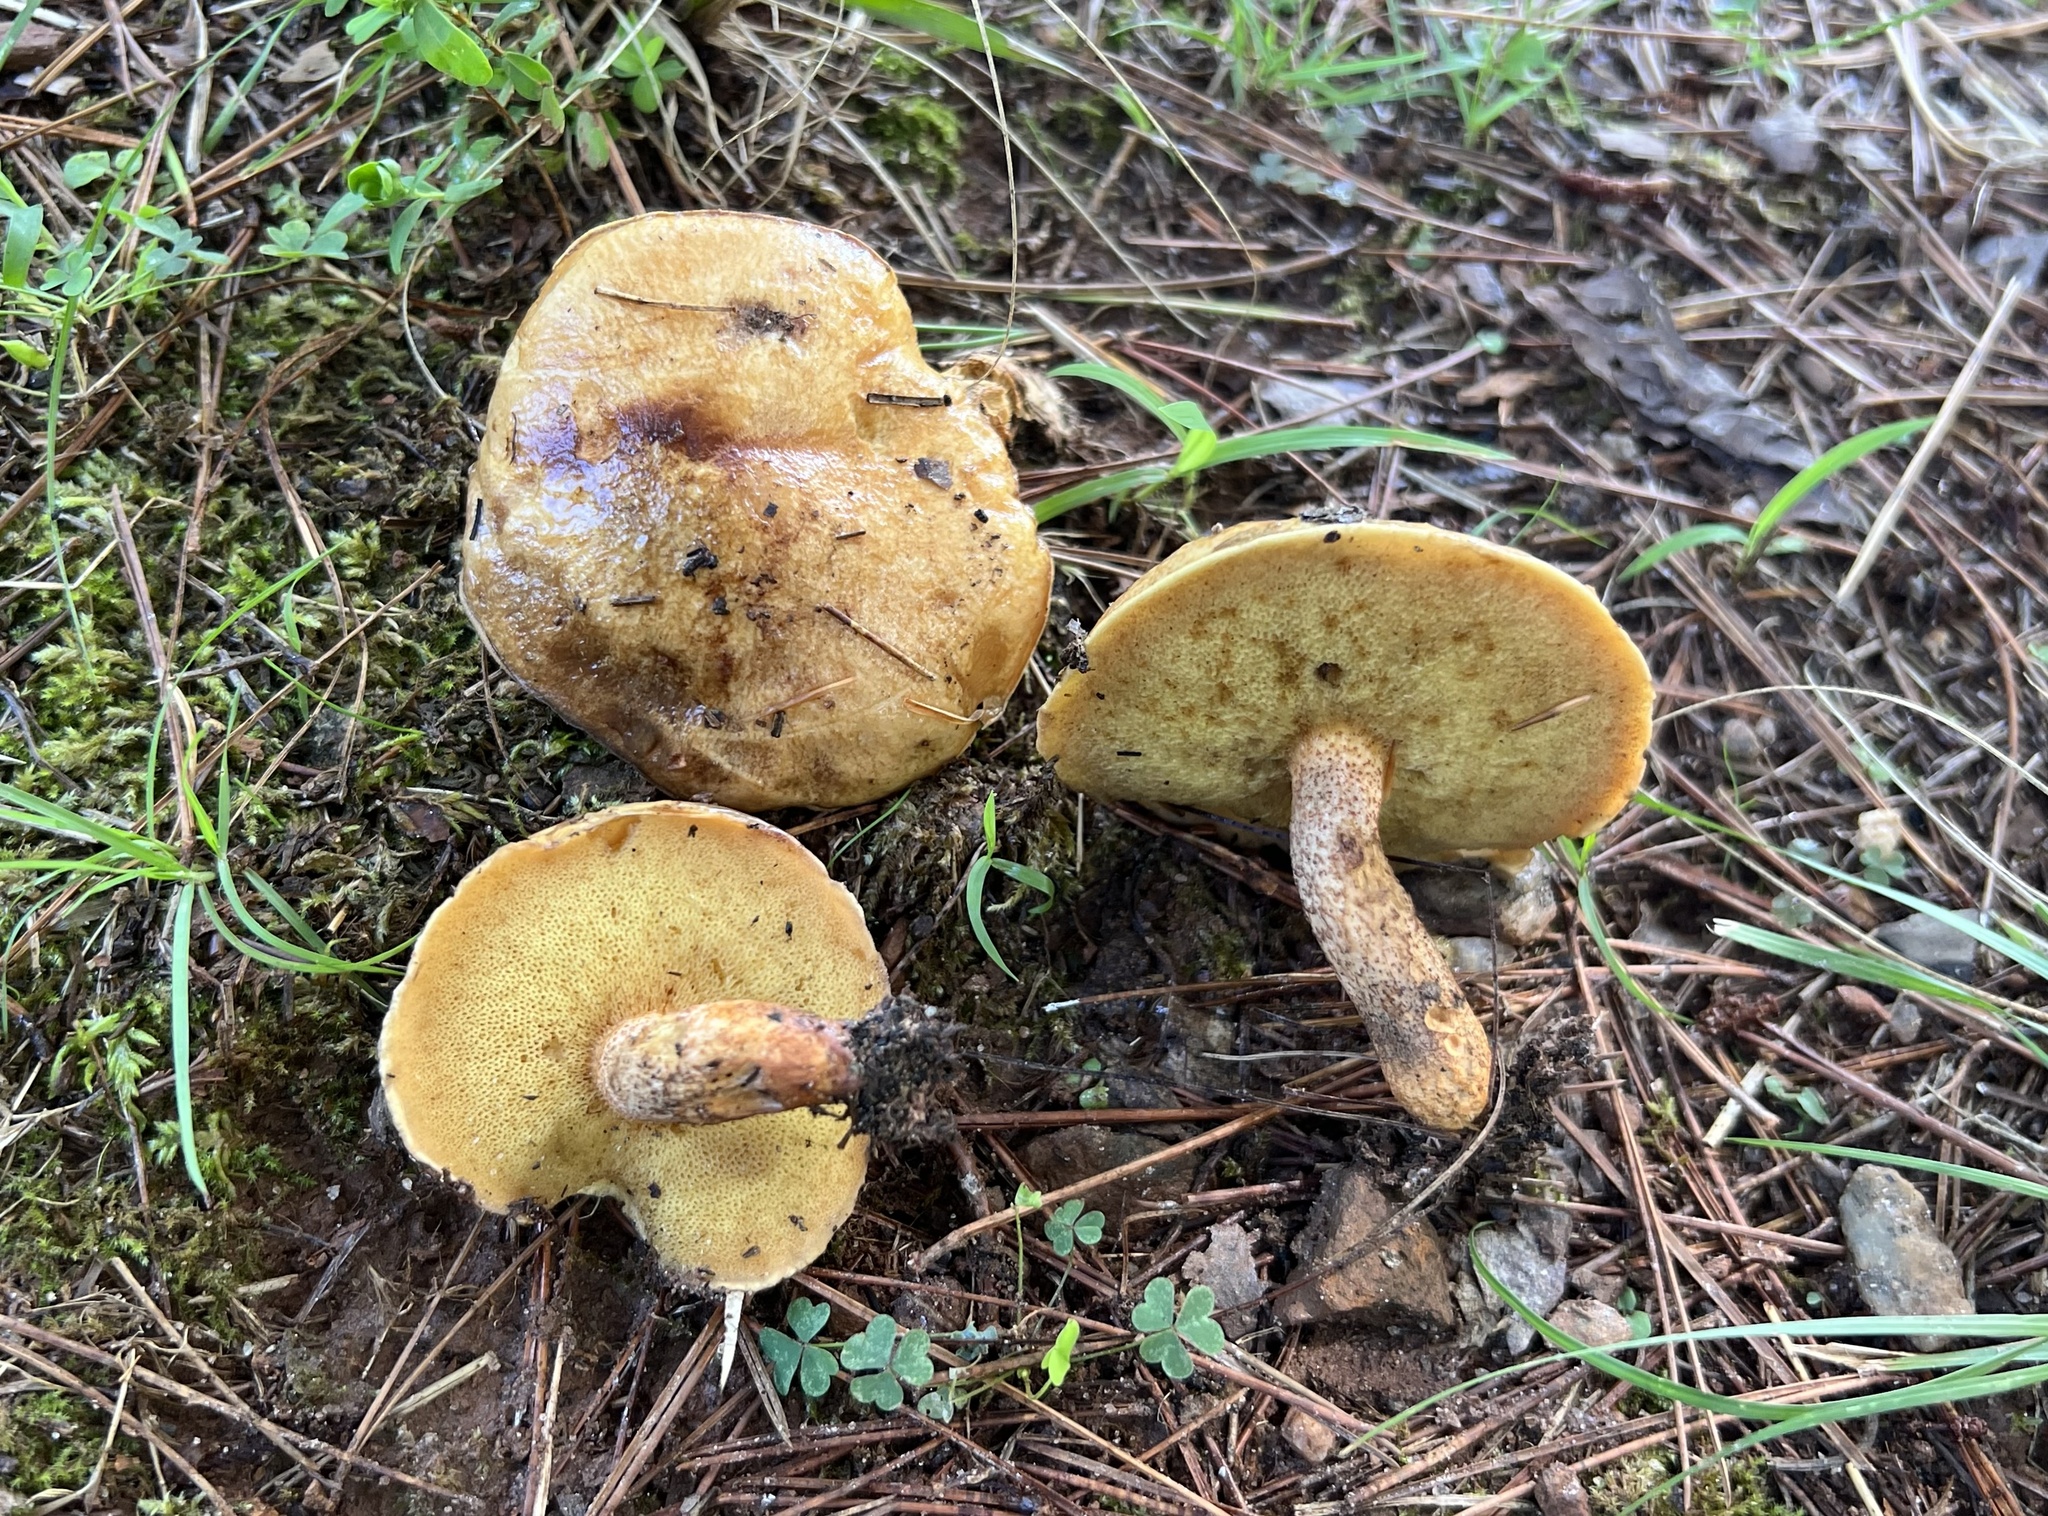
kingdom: Fungi
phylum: Basidiomycota
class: Agaricomycetes
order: Boletales
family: Suillaceae
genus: Suillus
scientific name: Suillus hirtellus
